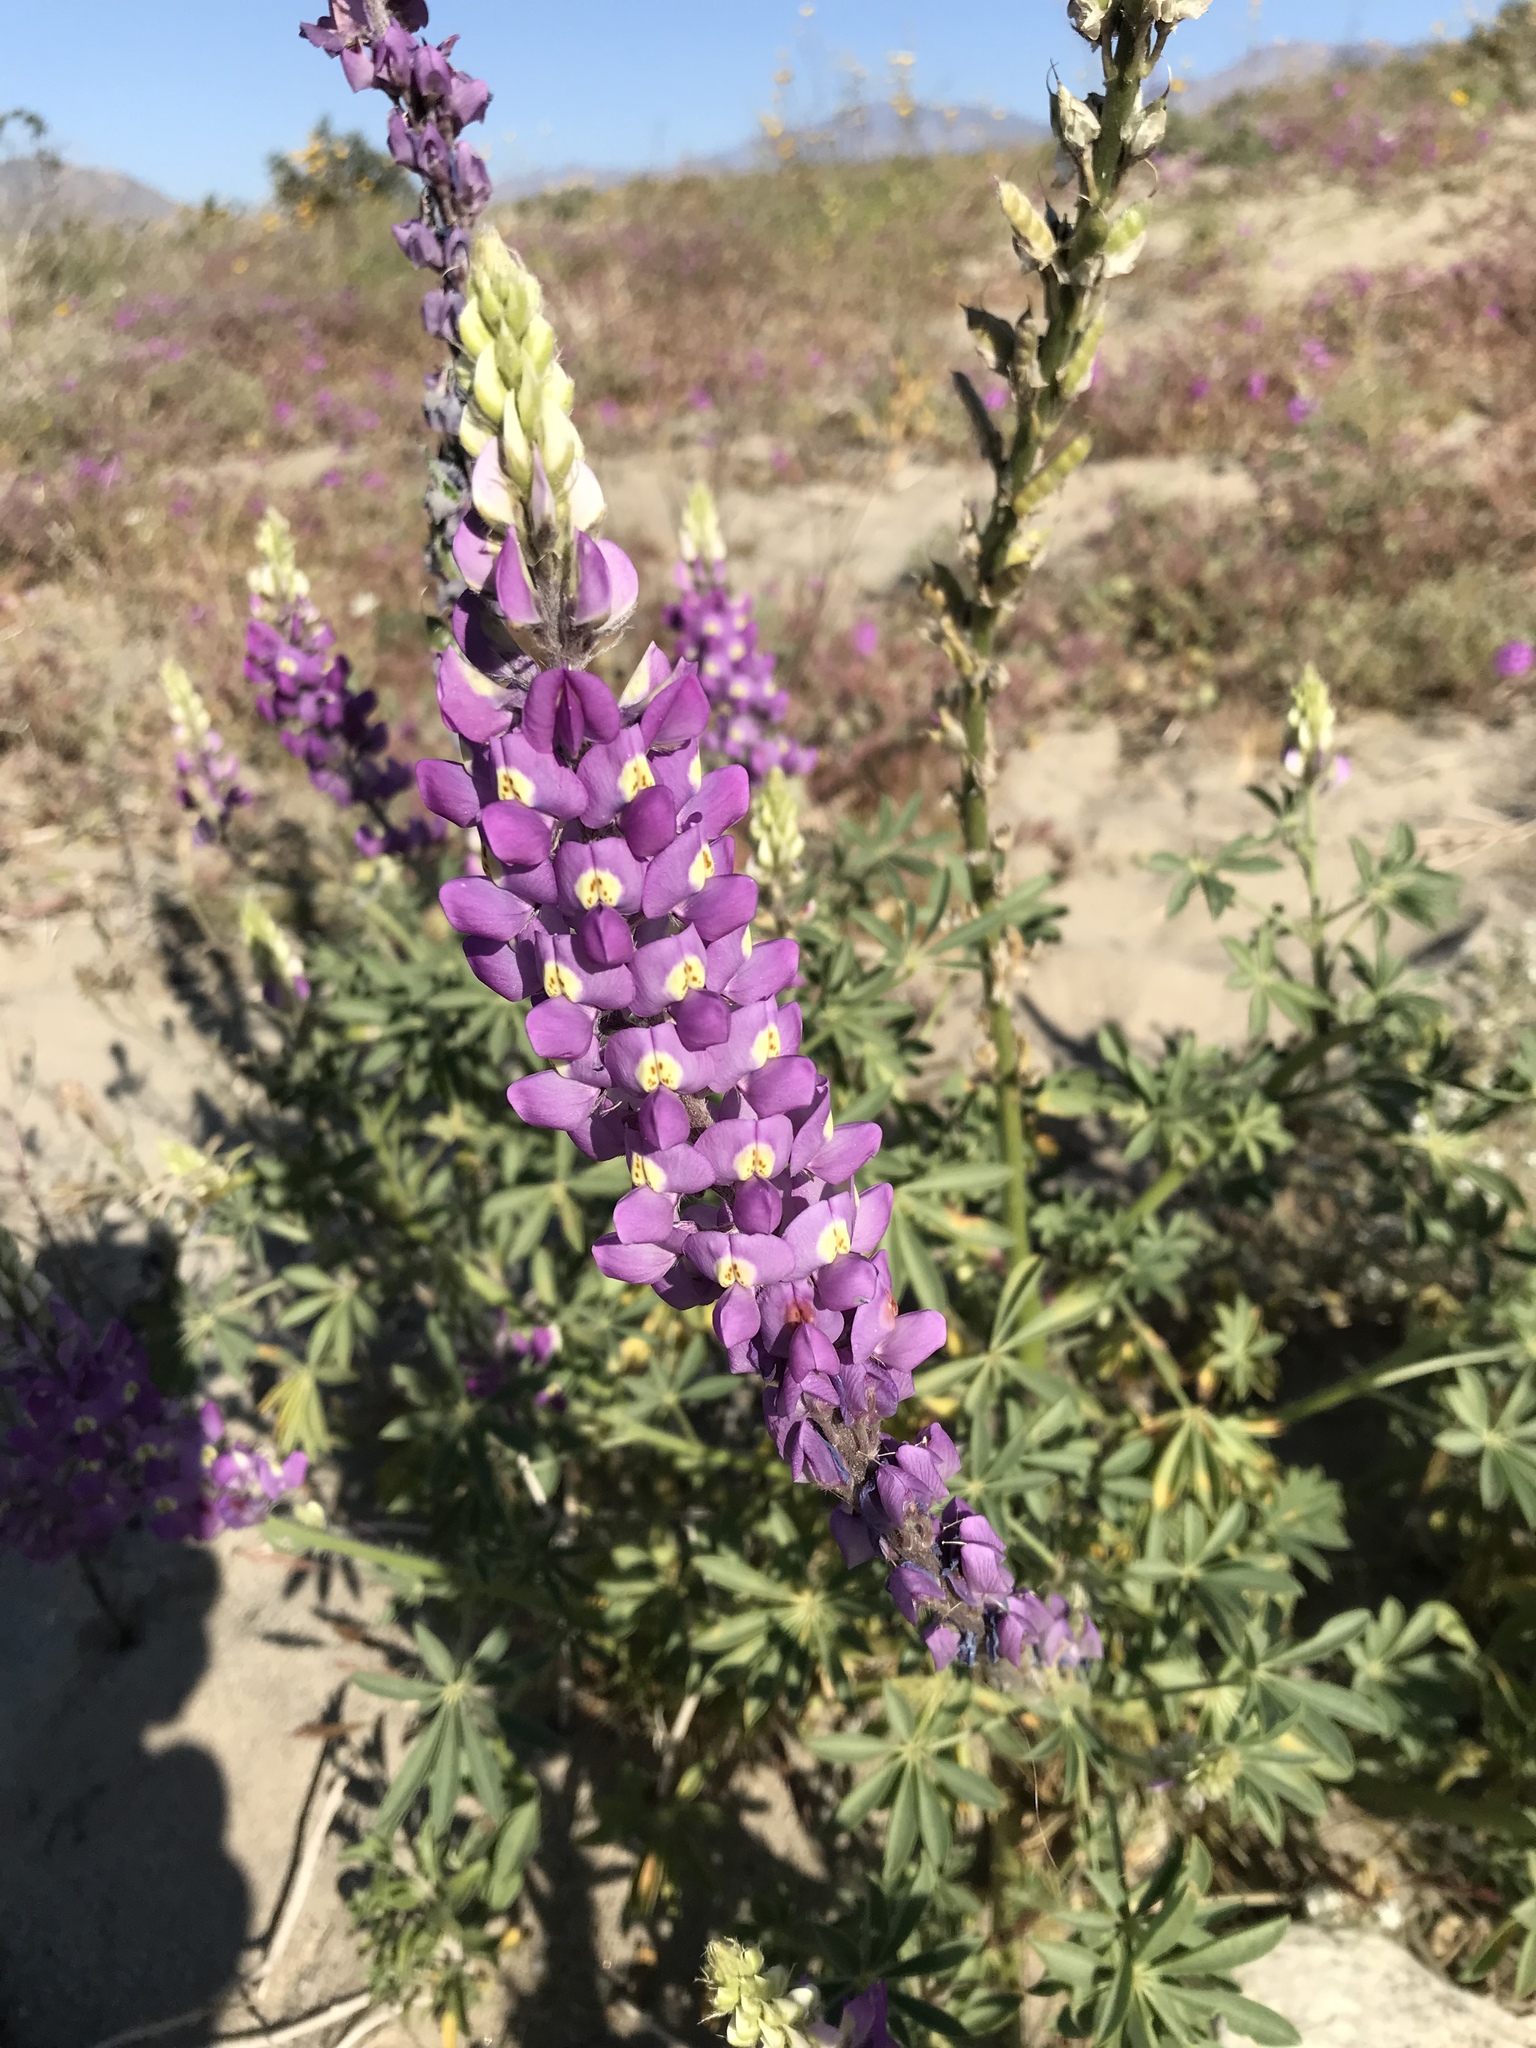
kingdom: Plantae
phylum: Tracheophyta
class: Magnoliopsida
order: Fabales
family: Fabaceae
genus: Lupinus
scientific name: Lupinus arizonicus
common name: Arizona lupine
